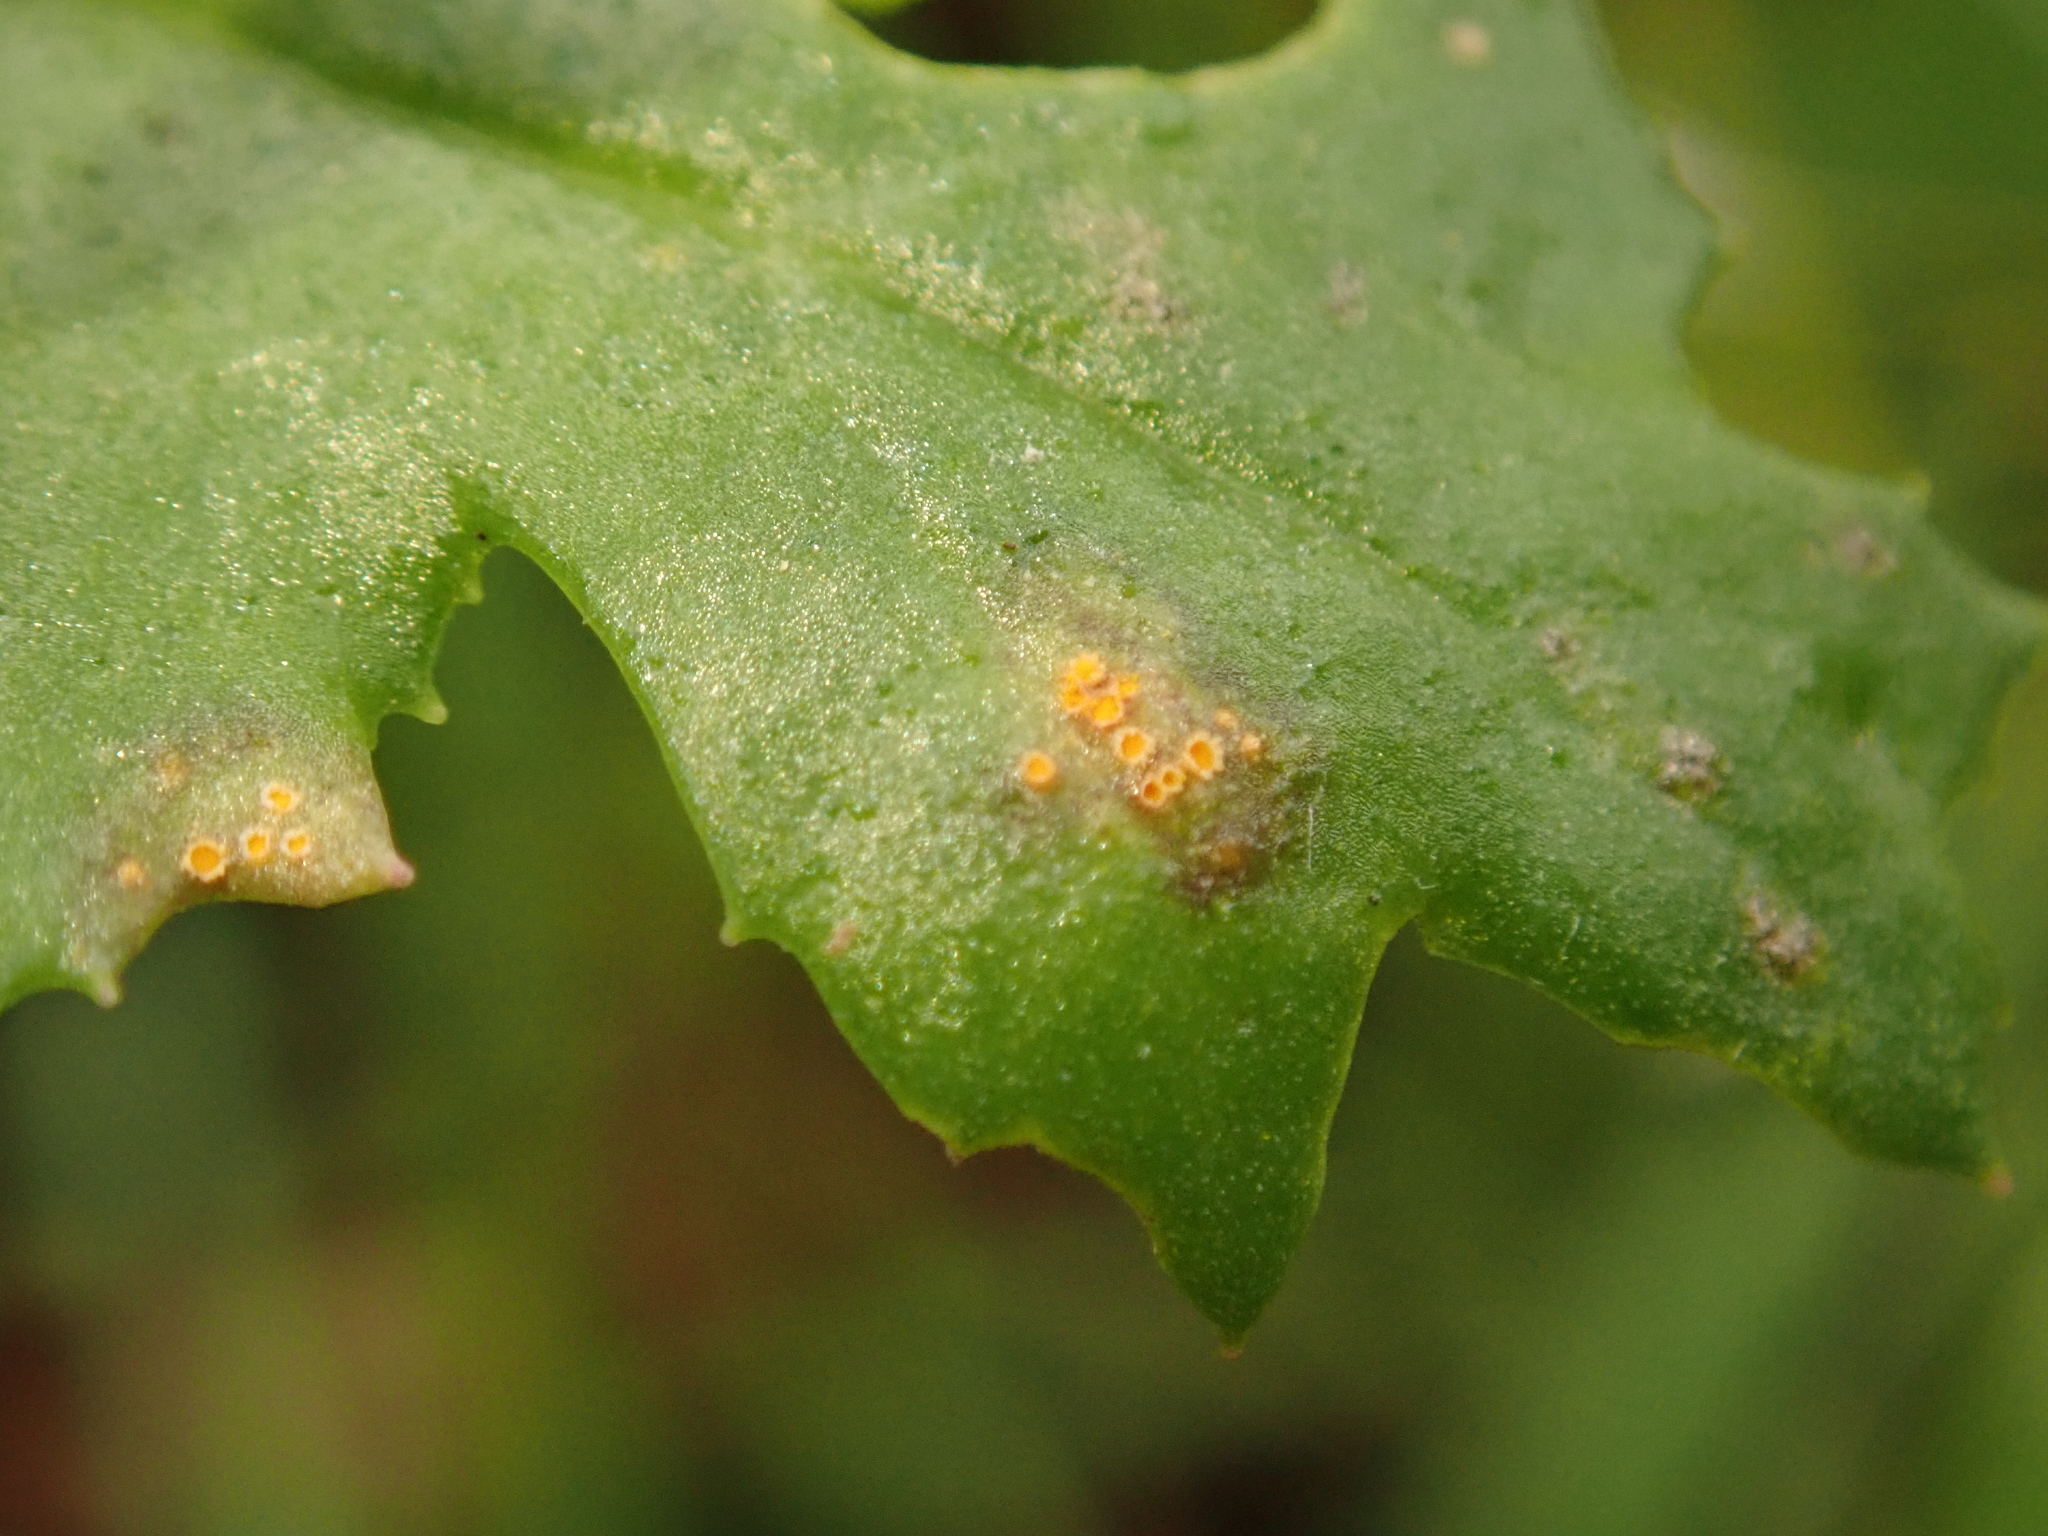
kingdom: Fungi
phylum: Basidiomycota
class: Pucciniomycetes
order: Pucciniales
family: Pucciniaceae
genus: Puccinia
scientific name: Puccinia lagenophorae
